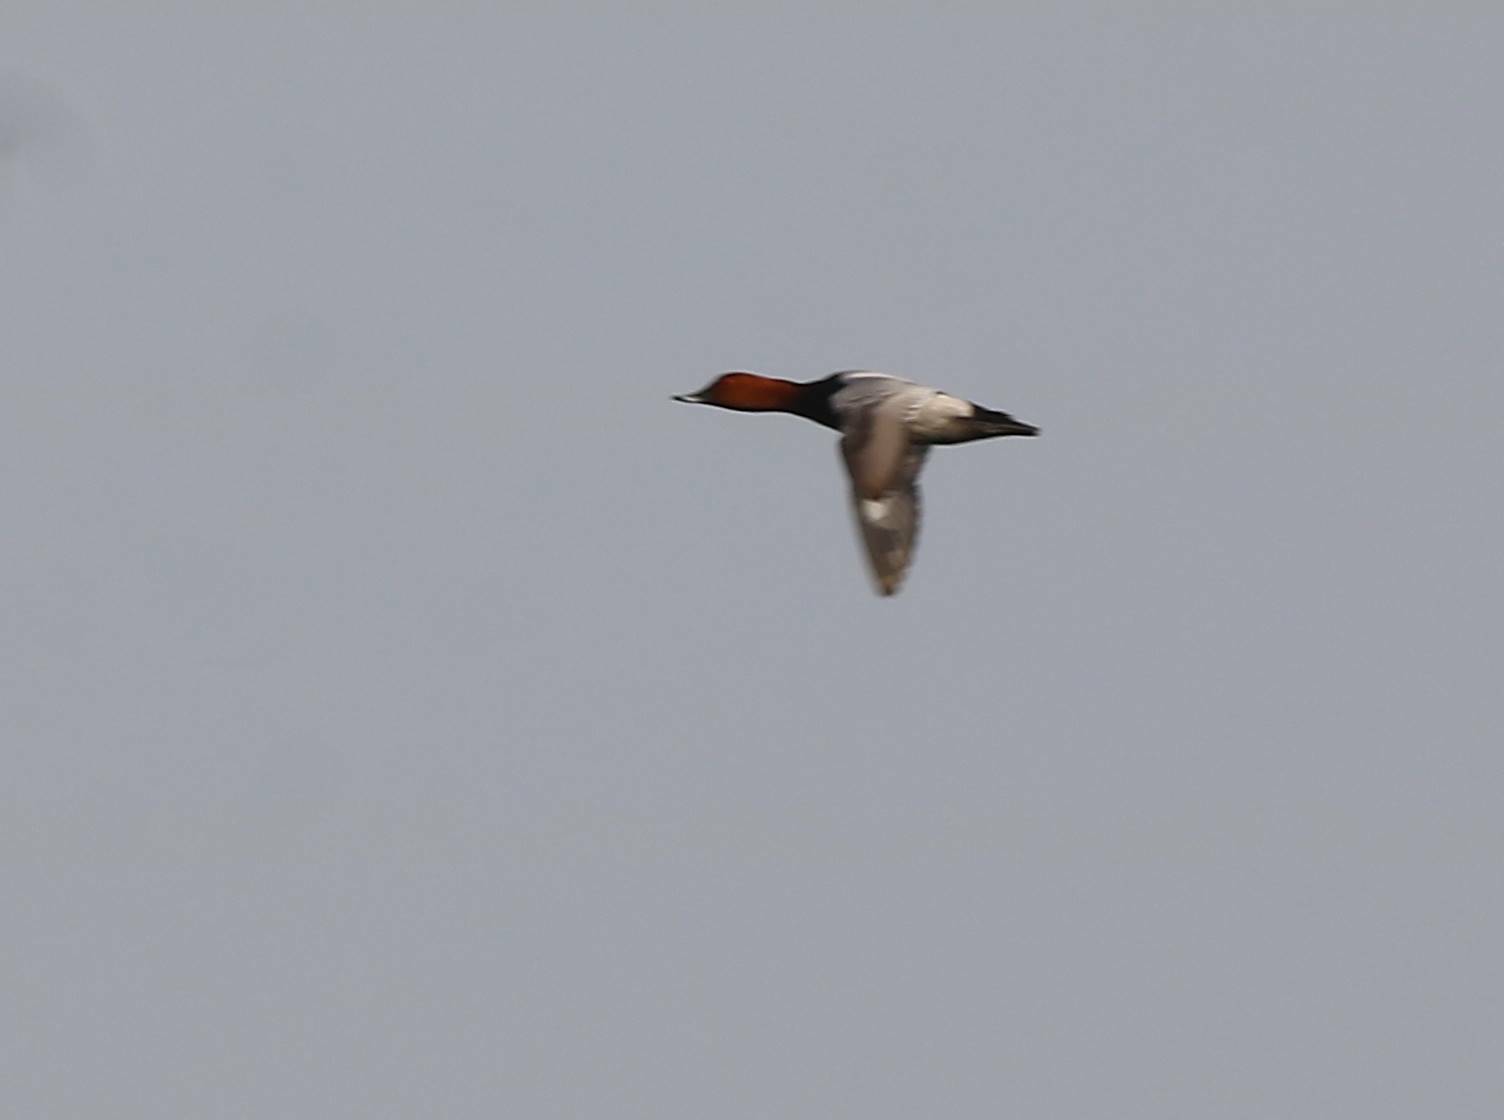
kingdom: Animalia
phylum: Chordata
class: Aves
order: Anseriformes
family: Anatidae
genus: Aythya
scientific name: Aythya ferina
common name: Common pochard
